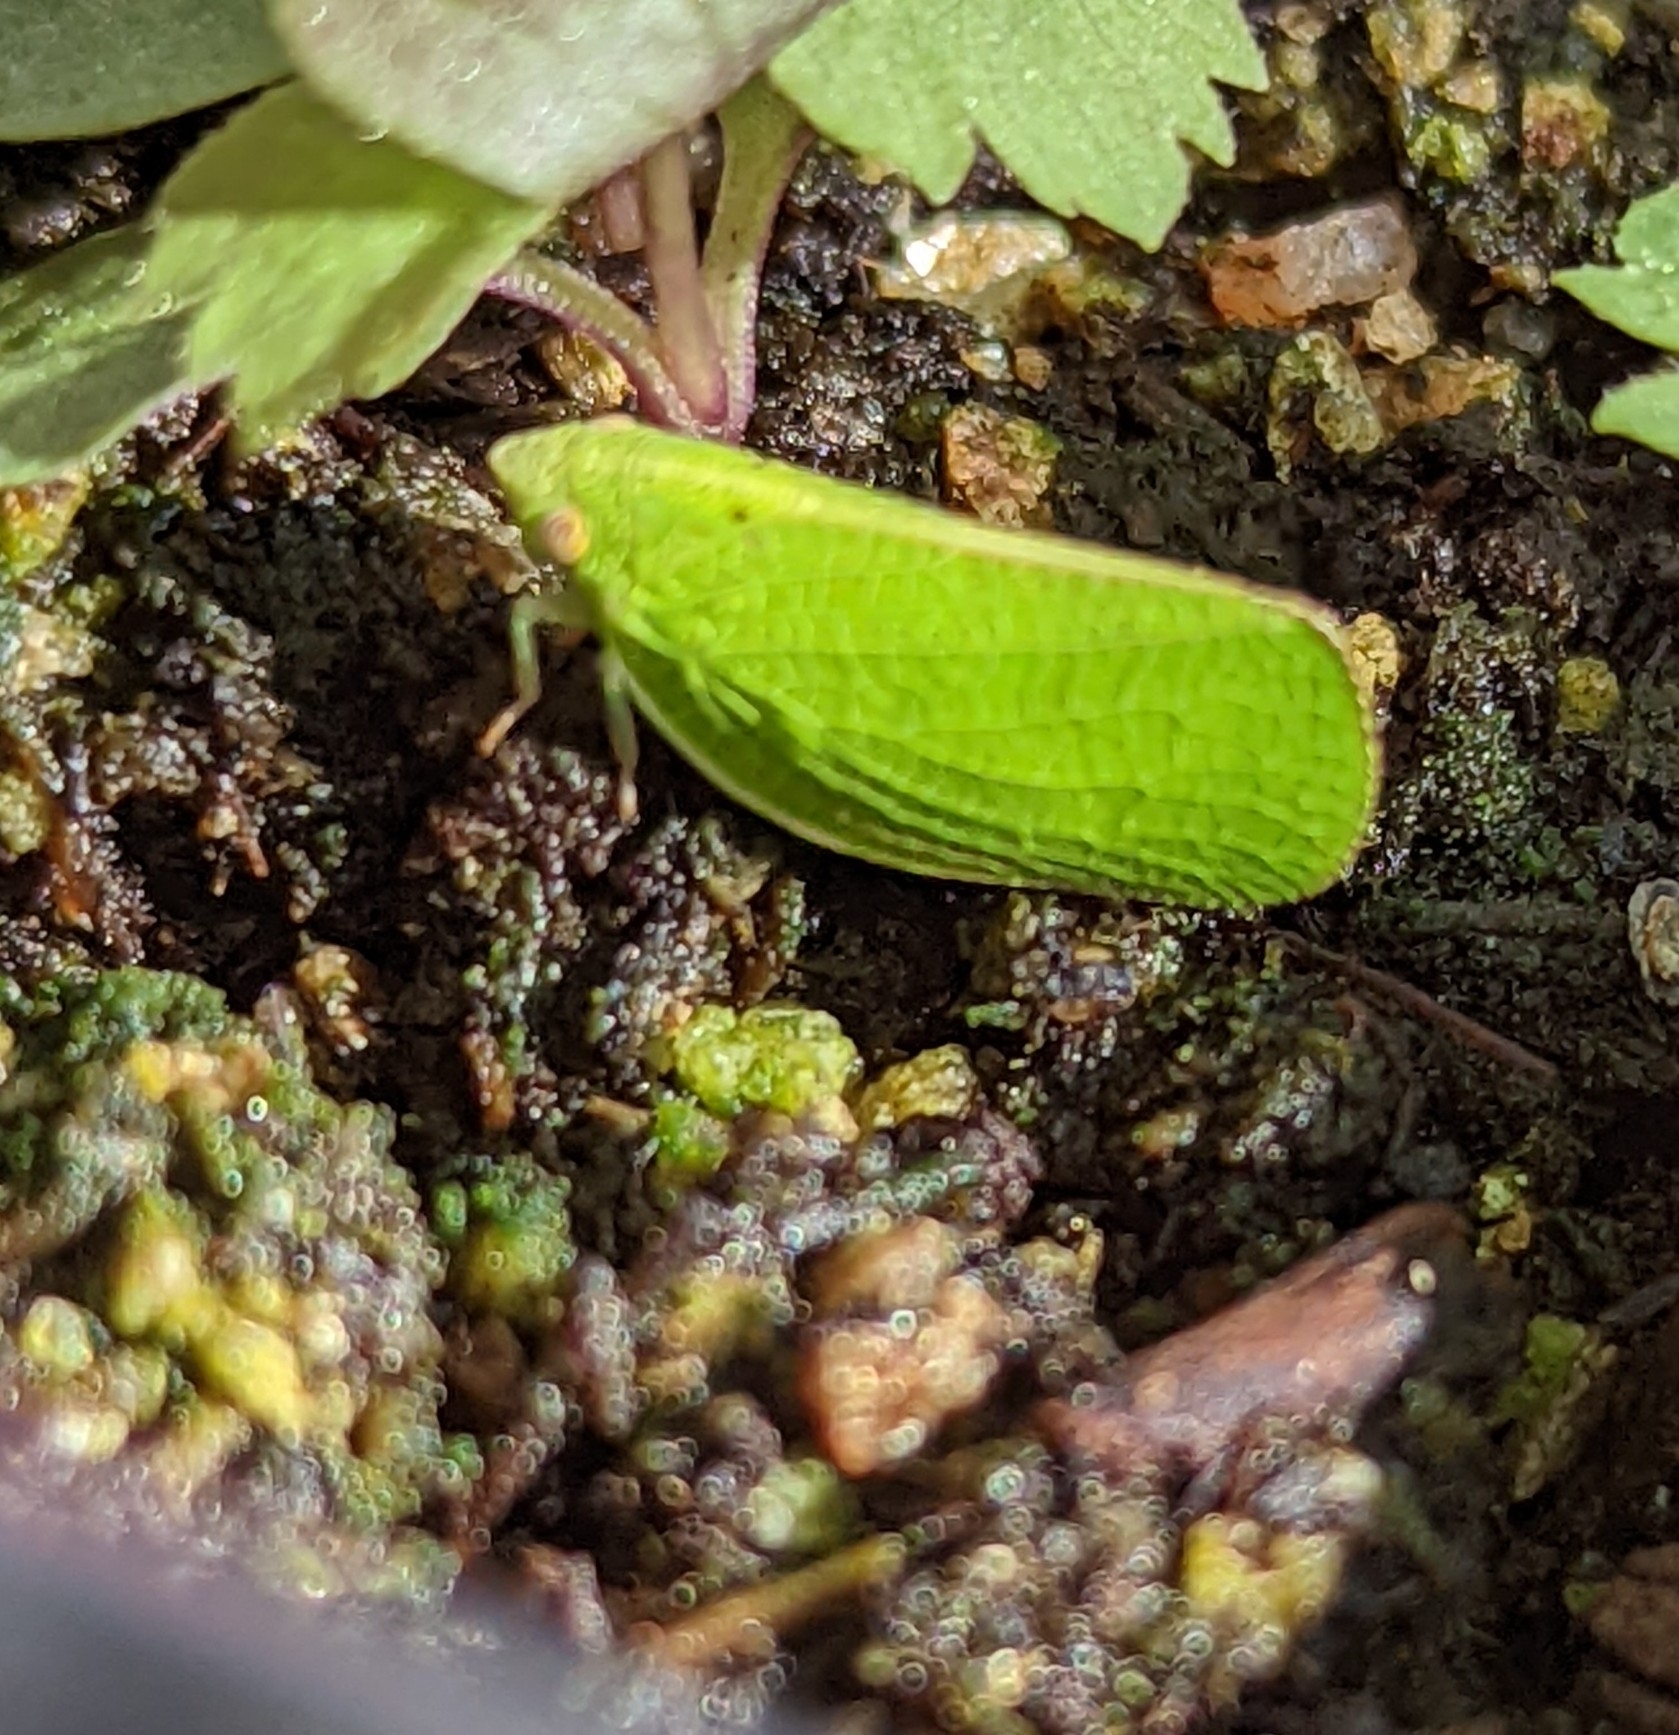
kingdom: Animalia
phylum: Arthropoda
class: Insecta
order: Hemiptera
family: Acanaloniidae
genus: Acanalonia
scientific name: Acanalonia conica
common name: Green cone-headed planthopper
